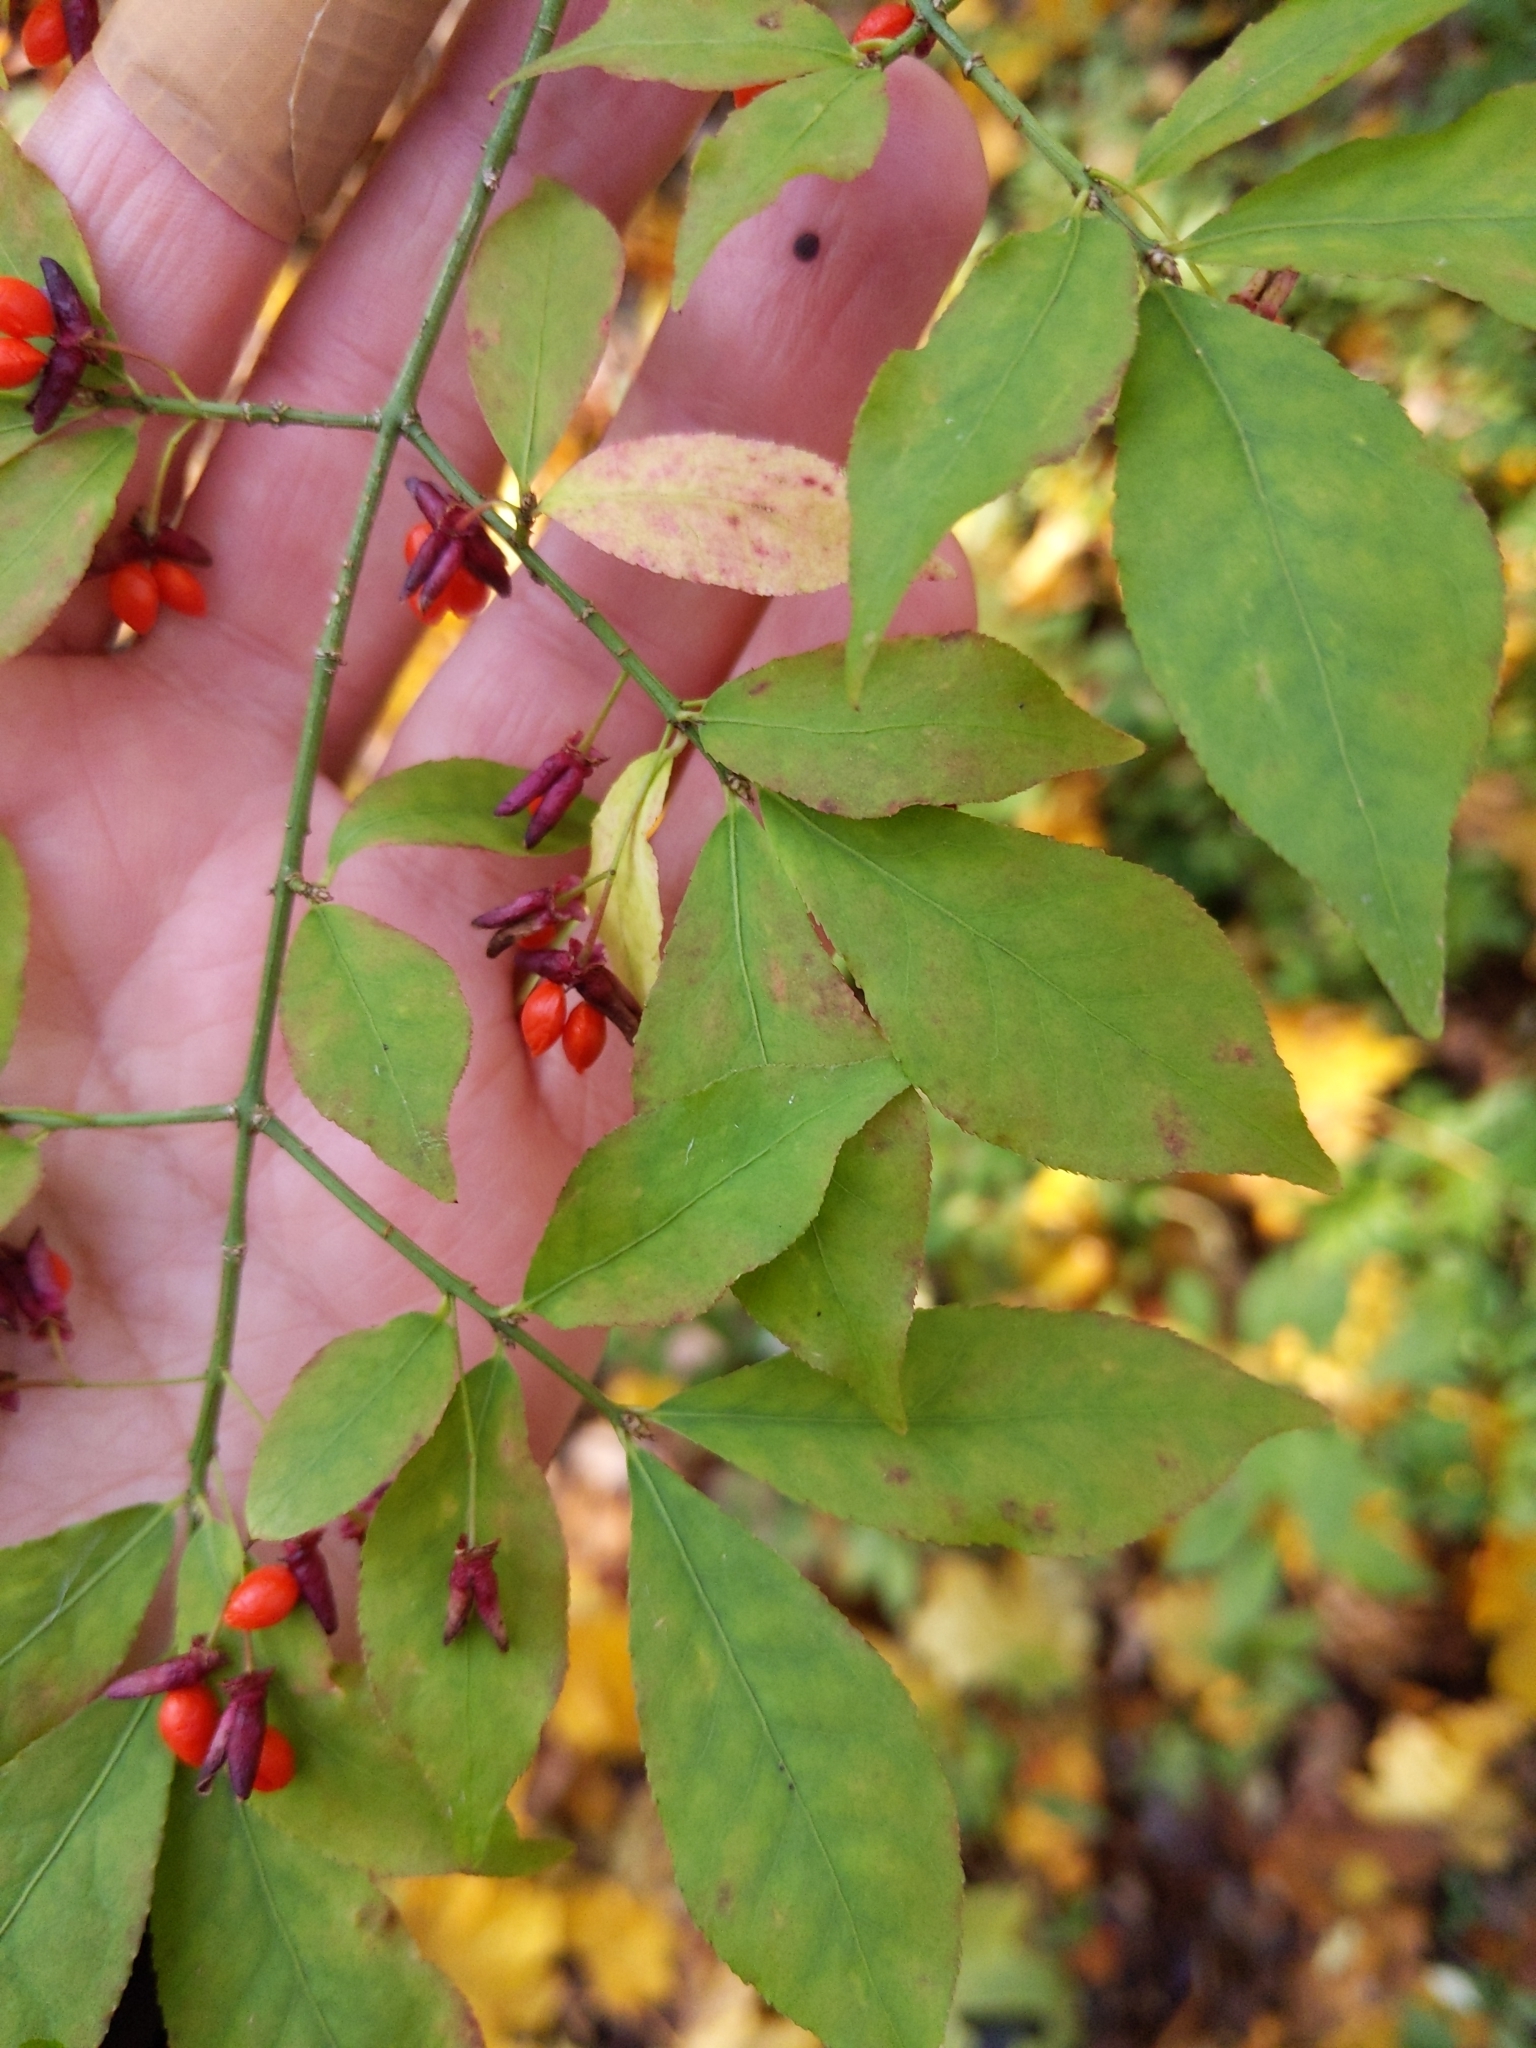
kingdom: Plantae
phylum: Tracheophyta
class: Magnoliopsida
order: Celastrales
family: Celastraceae
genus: Euonymus
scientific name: Euonymus alatus
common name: Winged euonymus
